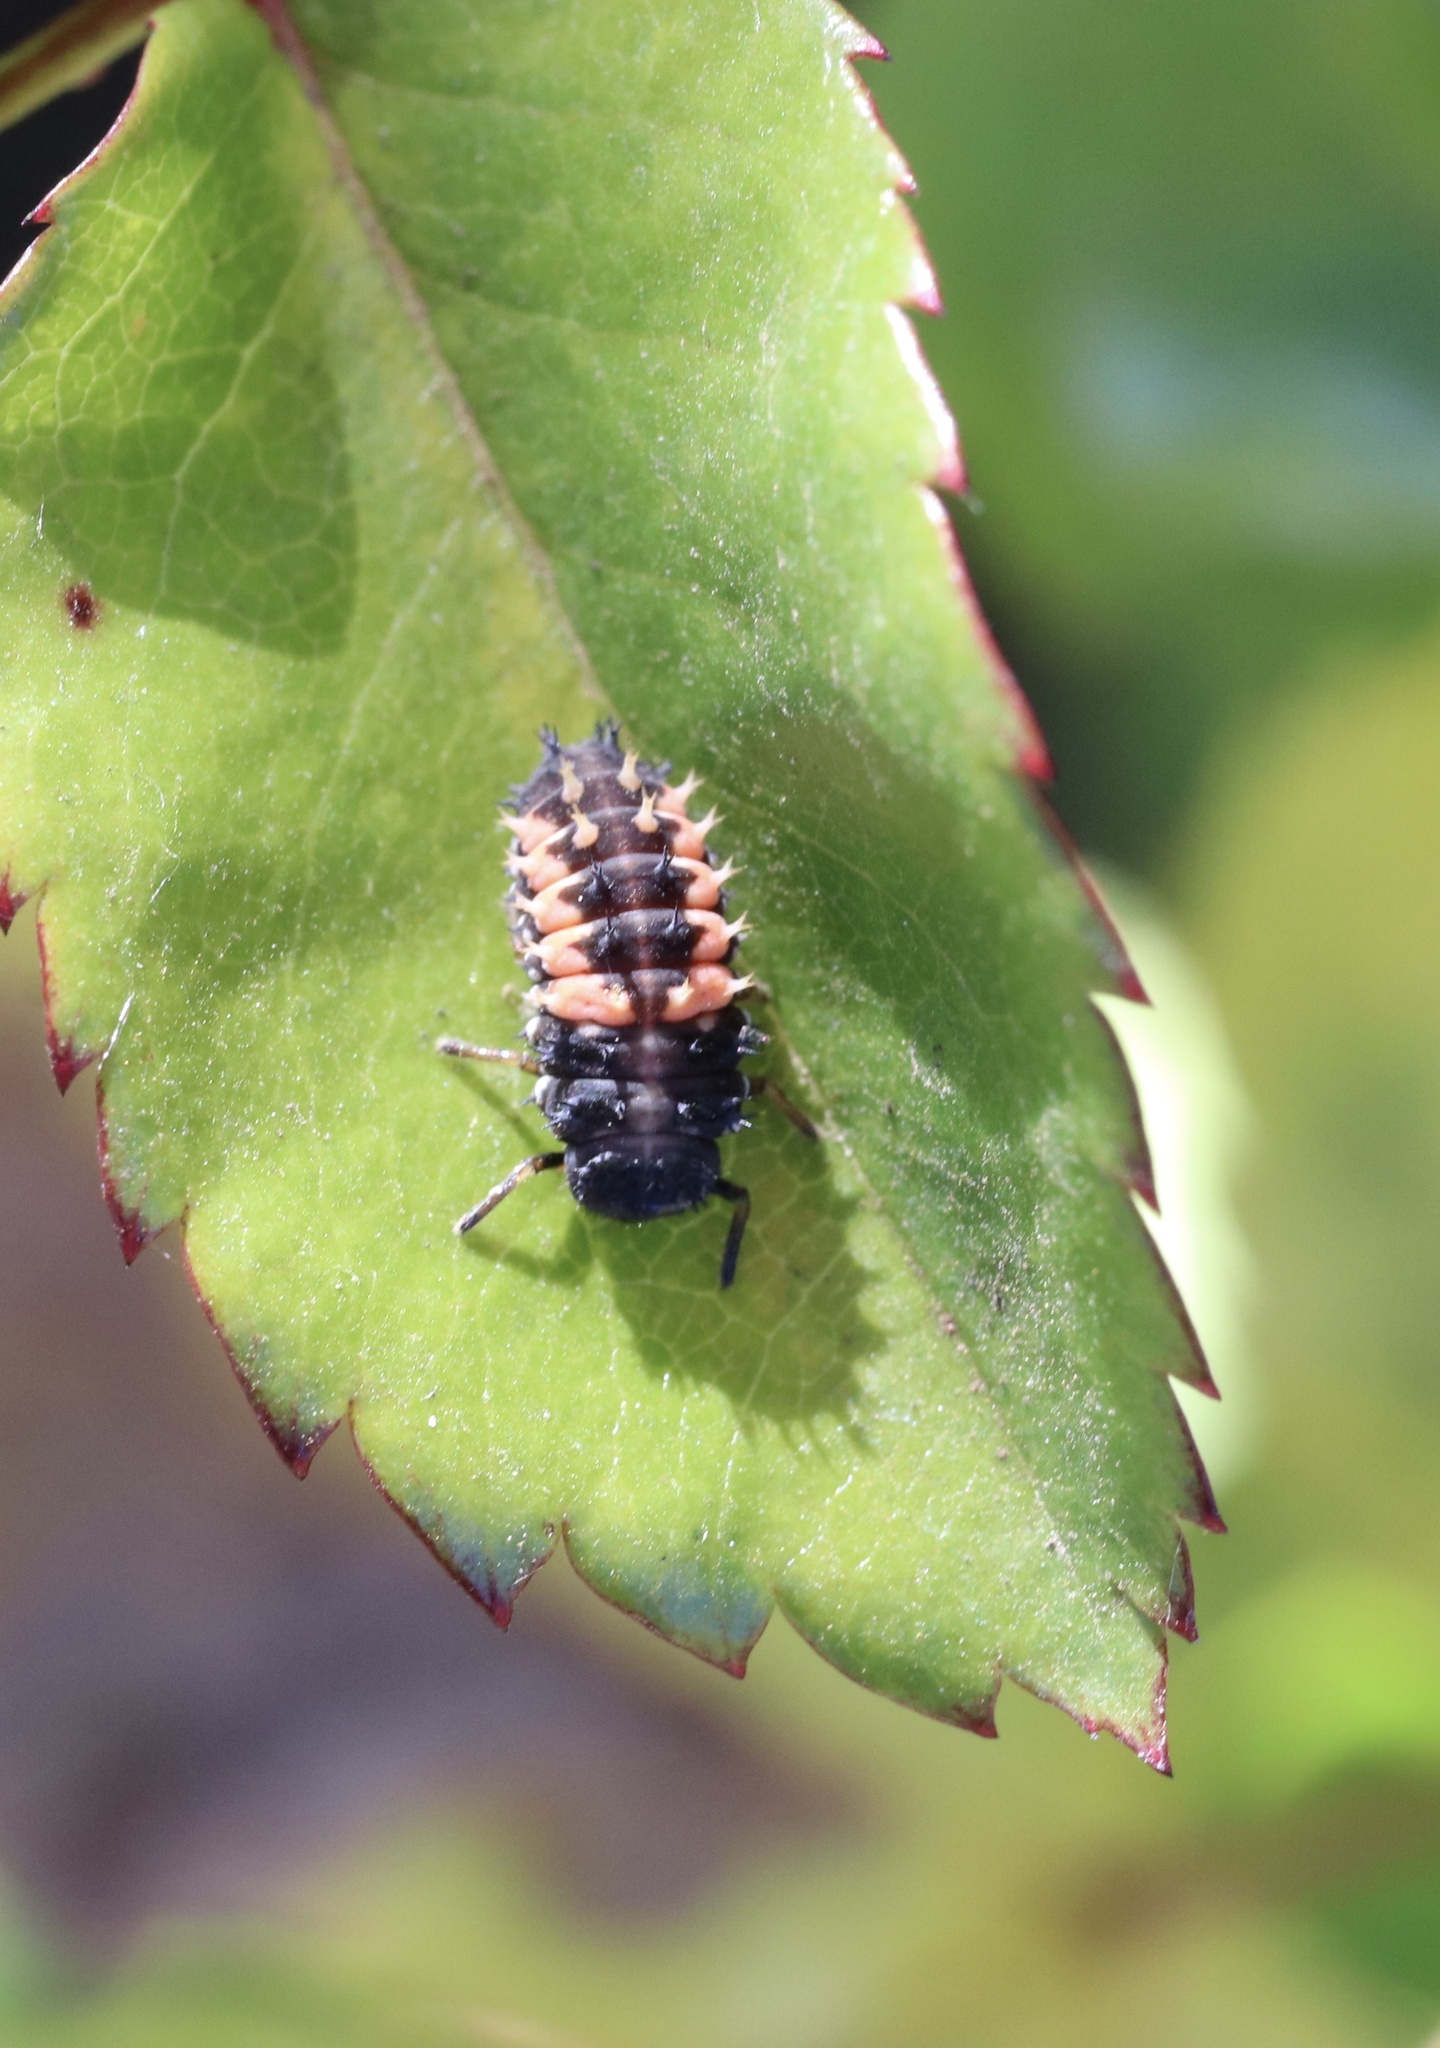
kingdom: Animalia
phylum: Arthropoda
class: Insecta
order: Coleoptera
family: Coccinellidae
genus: Harmonia
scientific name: Harmonia axyridis
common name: Harlequin ladybird
